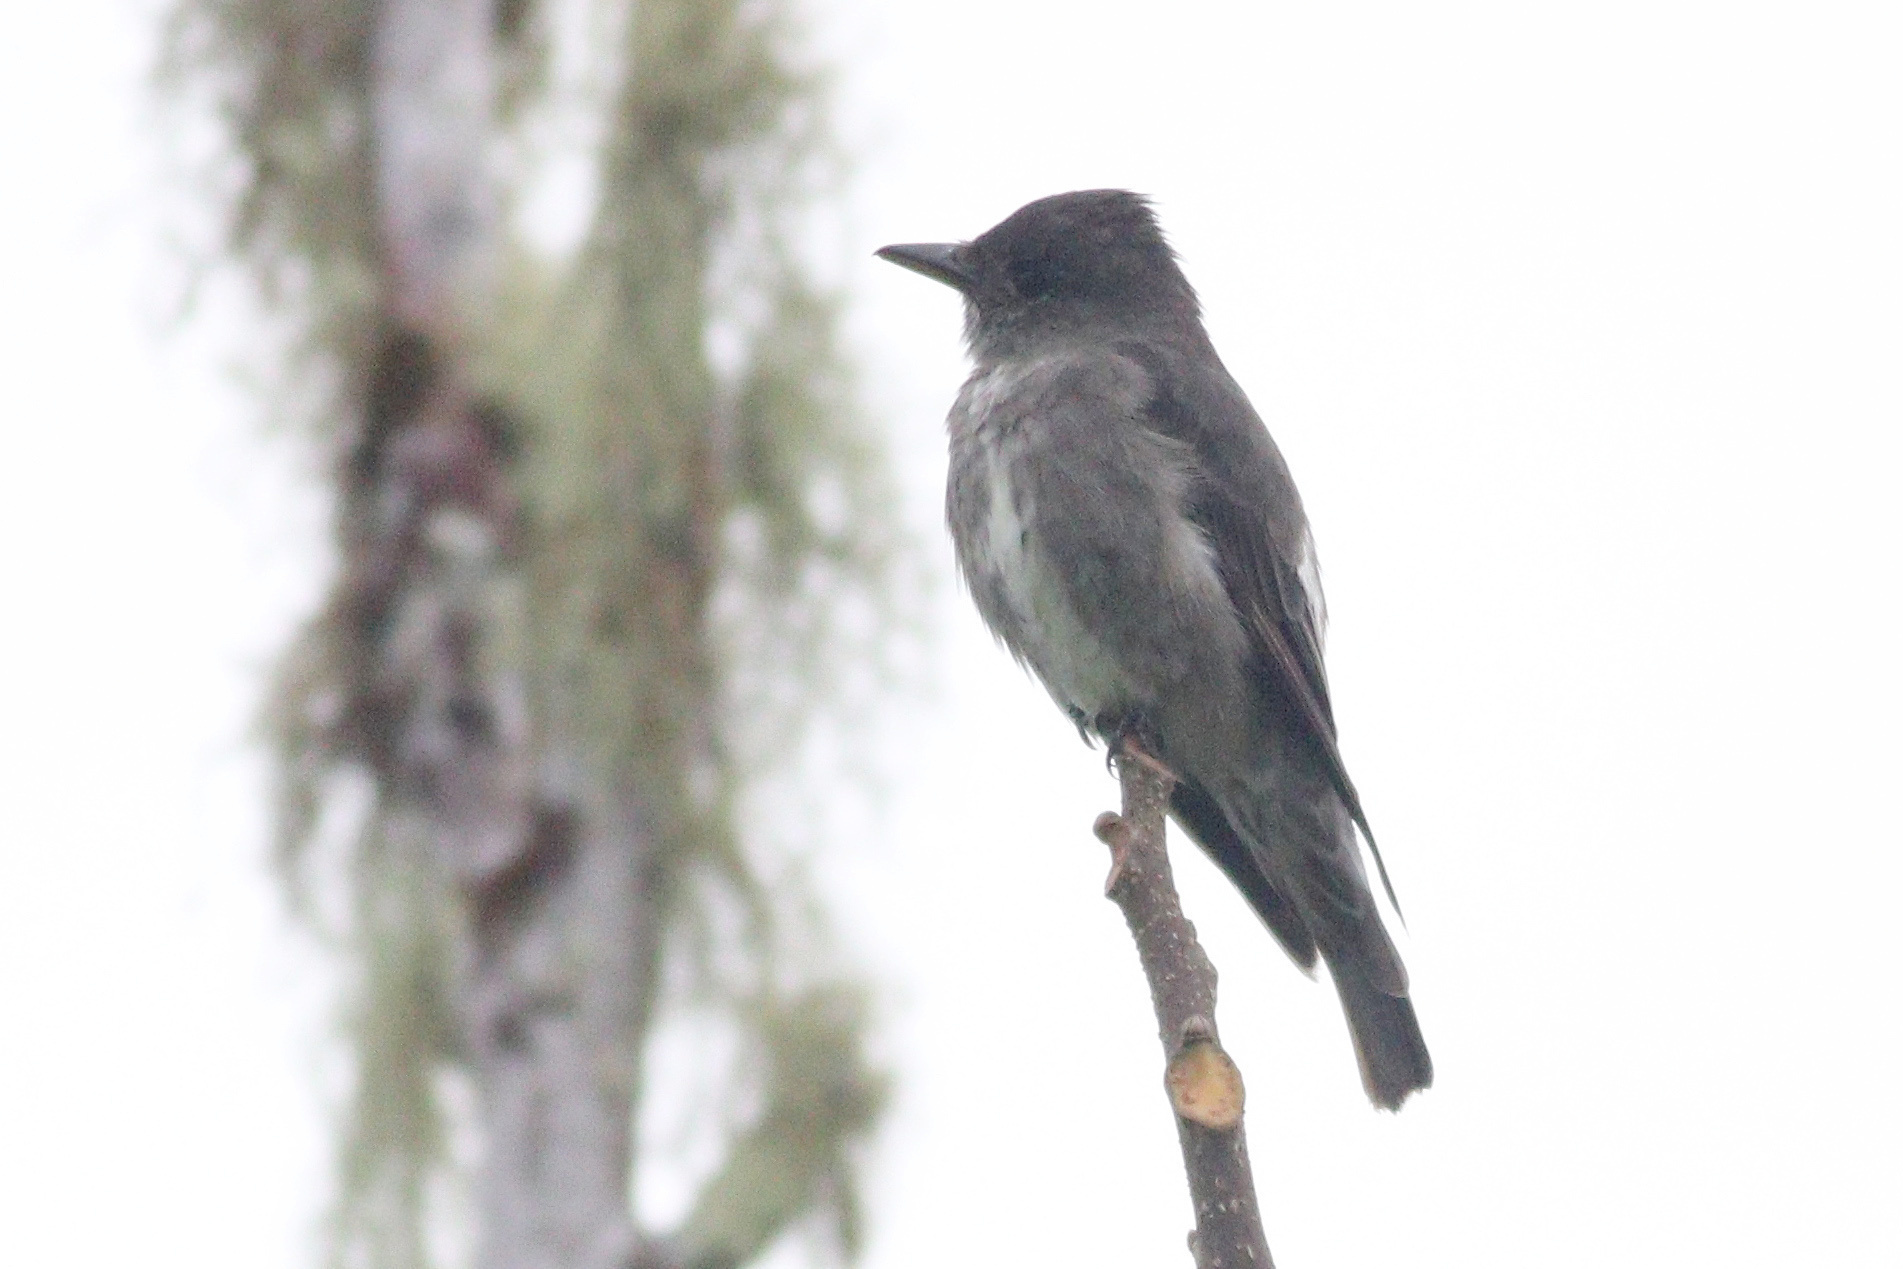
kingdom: Animalia
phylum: Chordata
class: Aves
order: Passeriformes
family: Tyrannidae
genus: Contopus
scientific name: Contopus cooperi
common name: Olive-sided flycatcher
